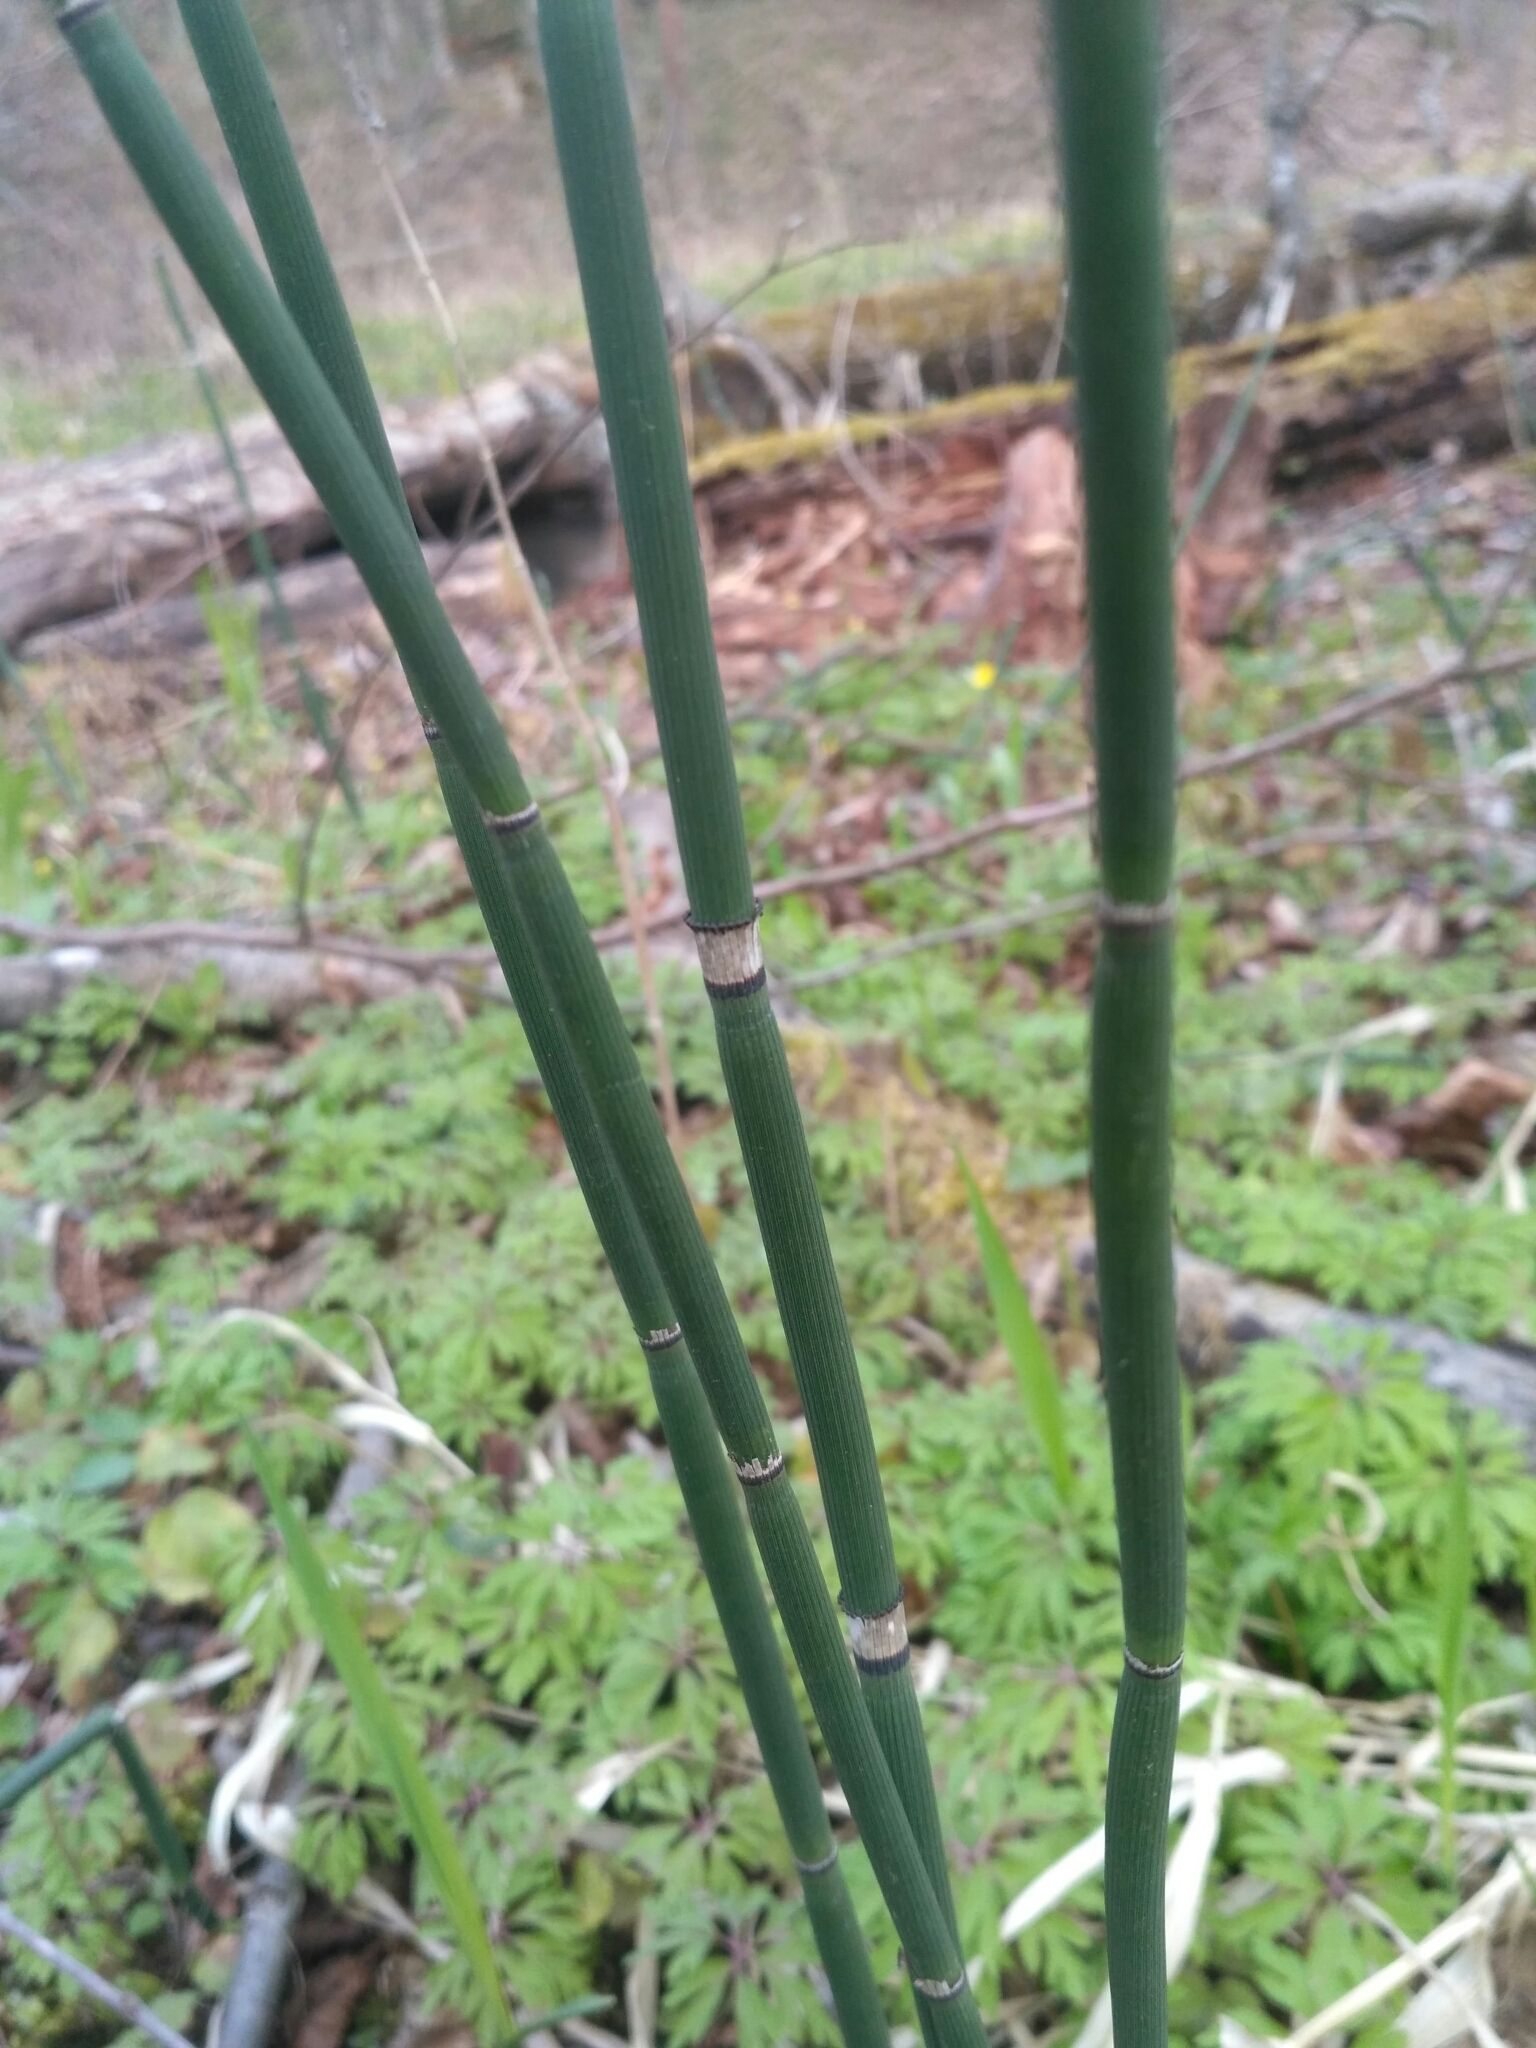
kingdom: Plantae
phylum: Tracheophyta
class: Polypodiopsida
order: Equisetales
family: Equisetaceae
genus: Equisetum
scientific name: Equisetum hyemale
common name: Rough horsetail
